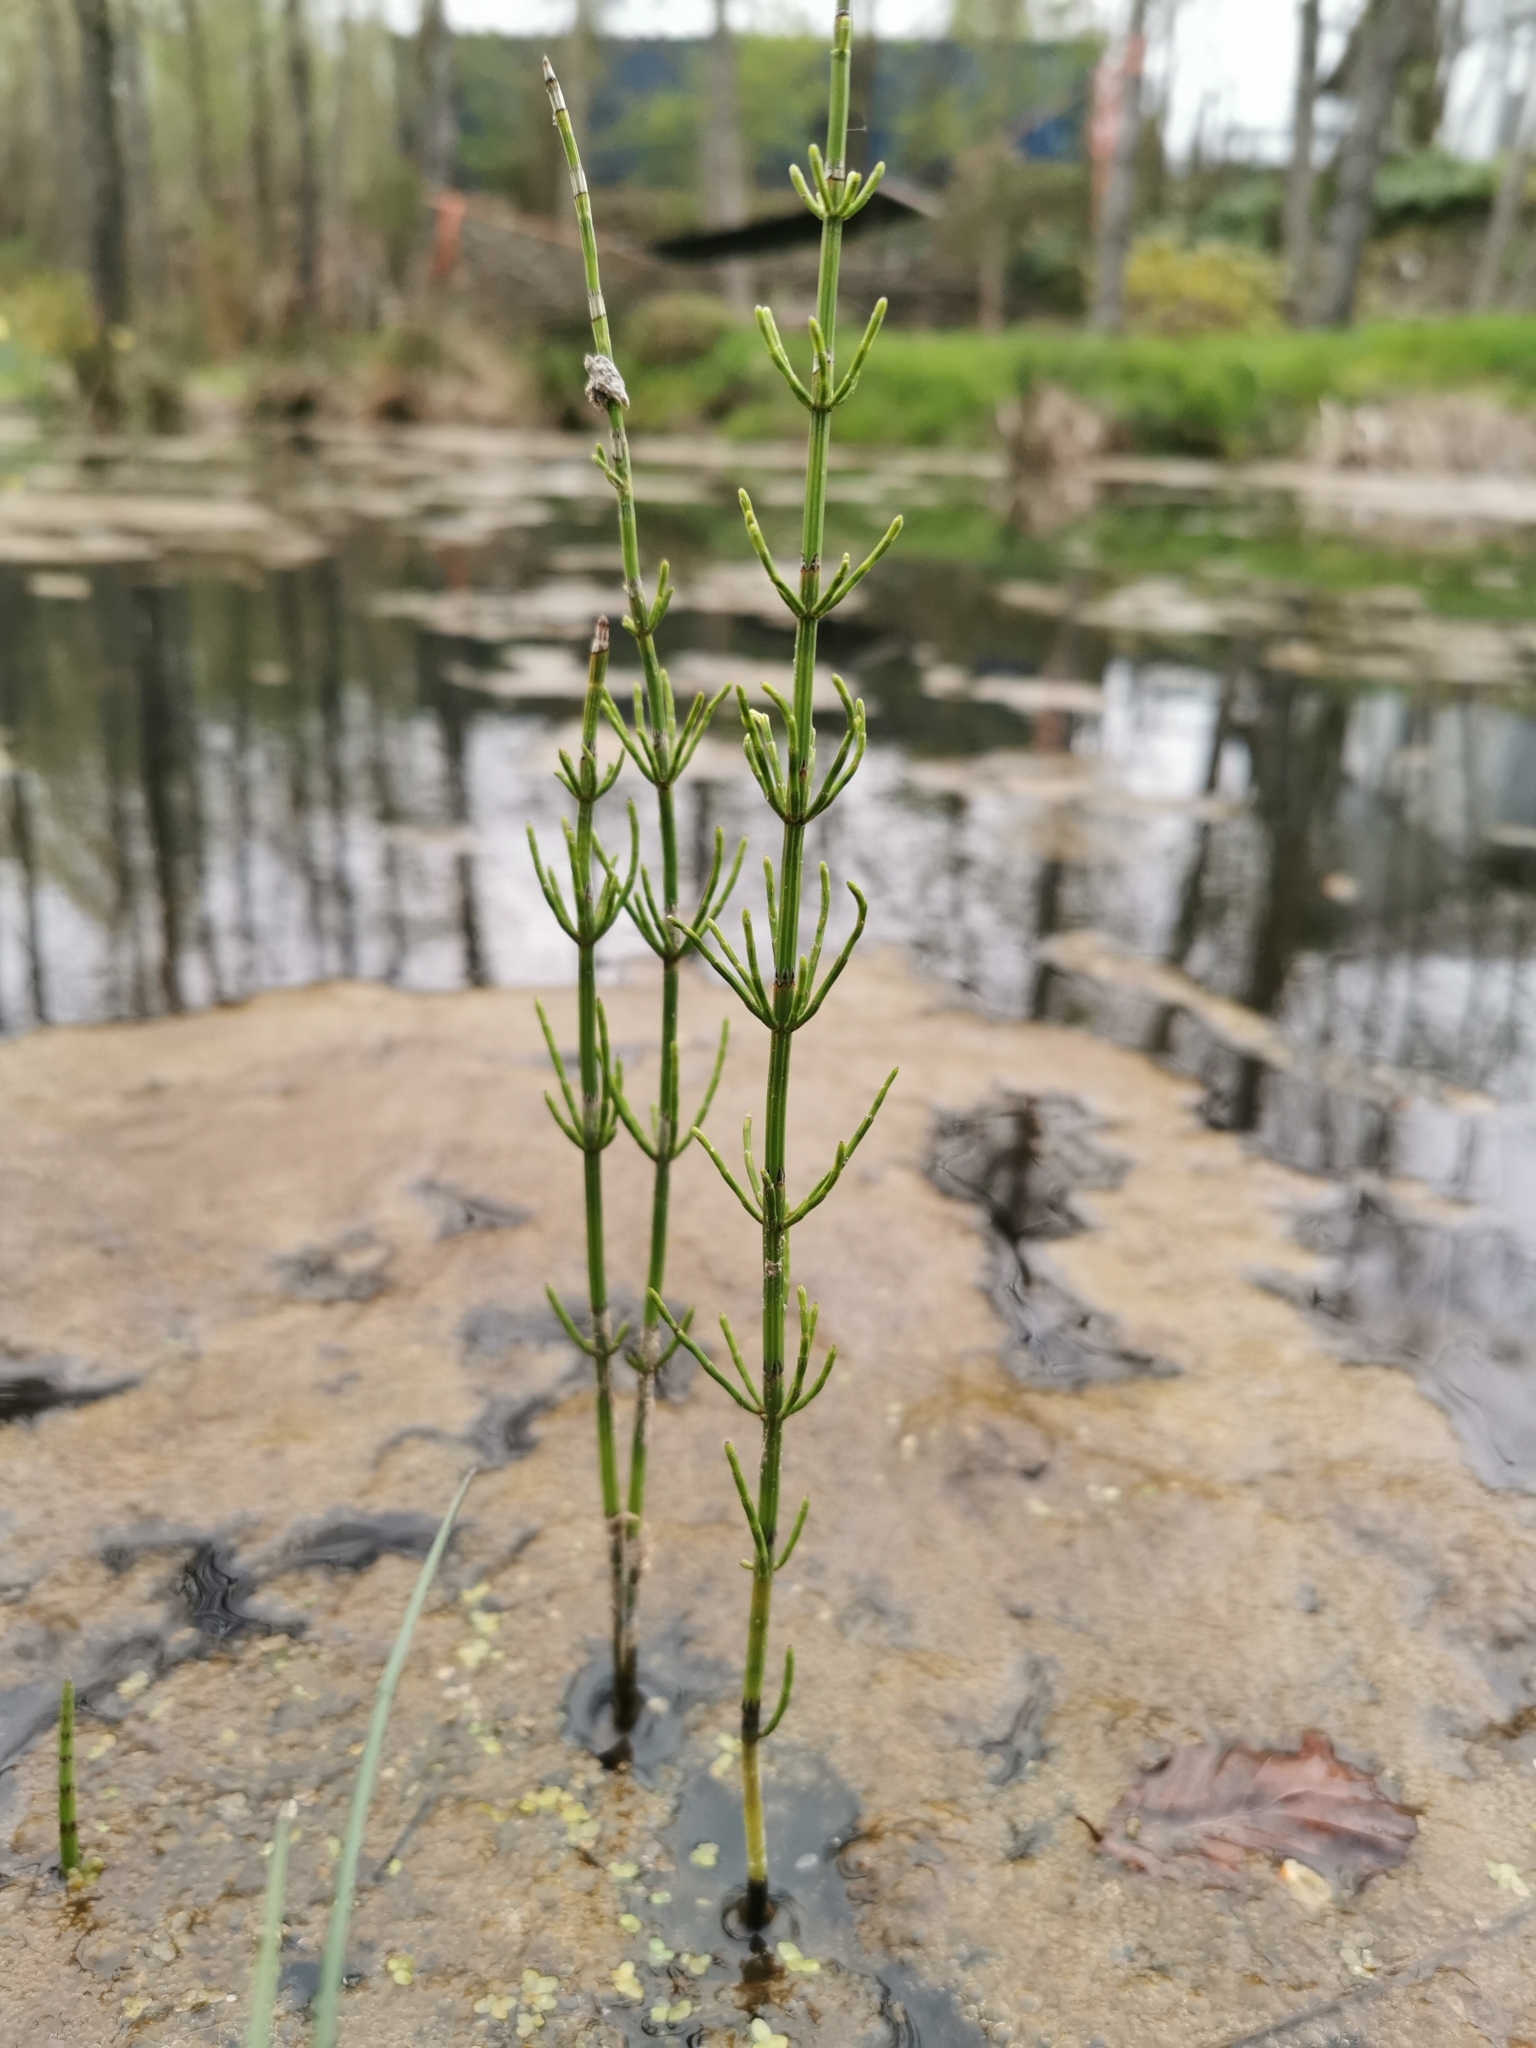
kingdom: Plantae
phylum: Tracheophyta
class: Polypodiopsida
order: Equisetales
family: Equisetaceae
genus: Equisetum
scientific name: Equisetum palustre
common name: Marsh horsetail
